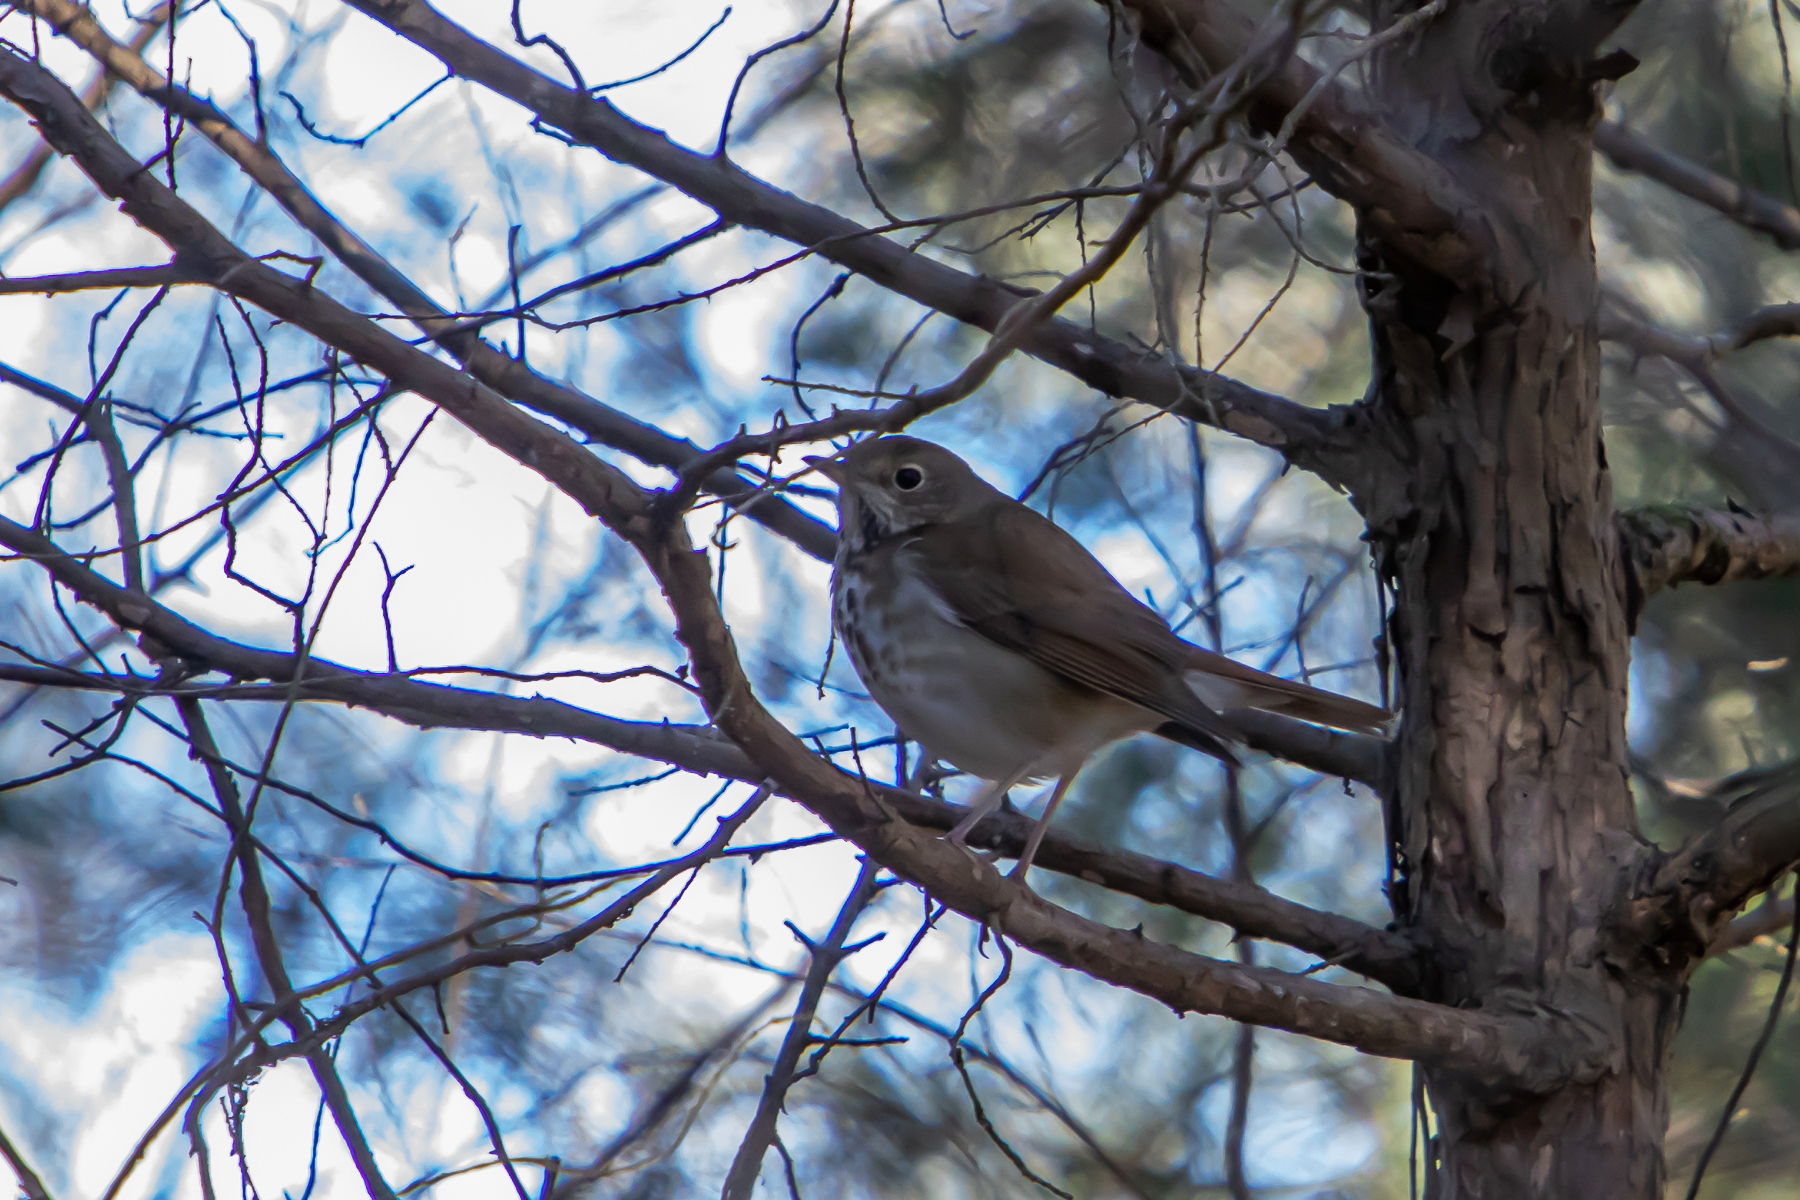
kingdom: Animalia
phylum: Chordata
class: Aves
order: Passeriformes
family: Turdidae
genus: Catharus
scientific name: Catharus guttatus
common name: Hermit thrush
